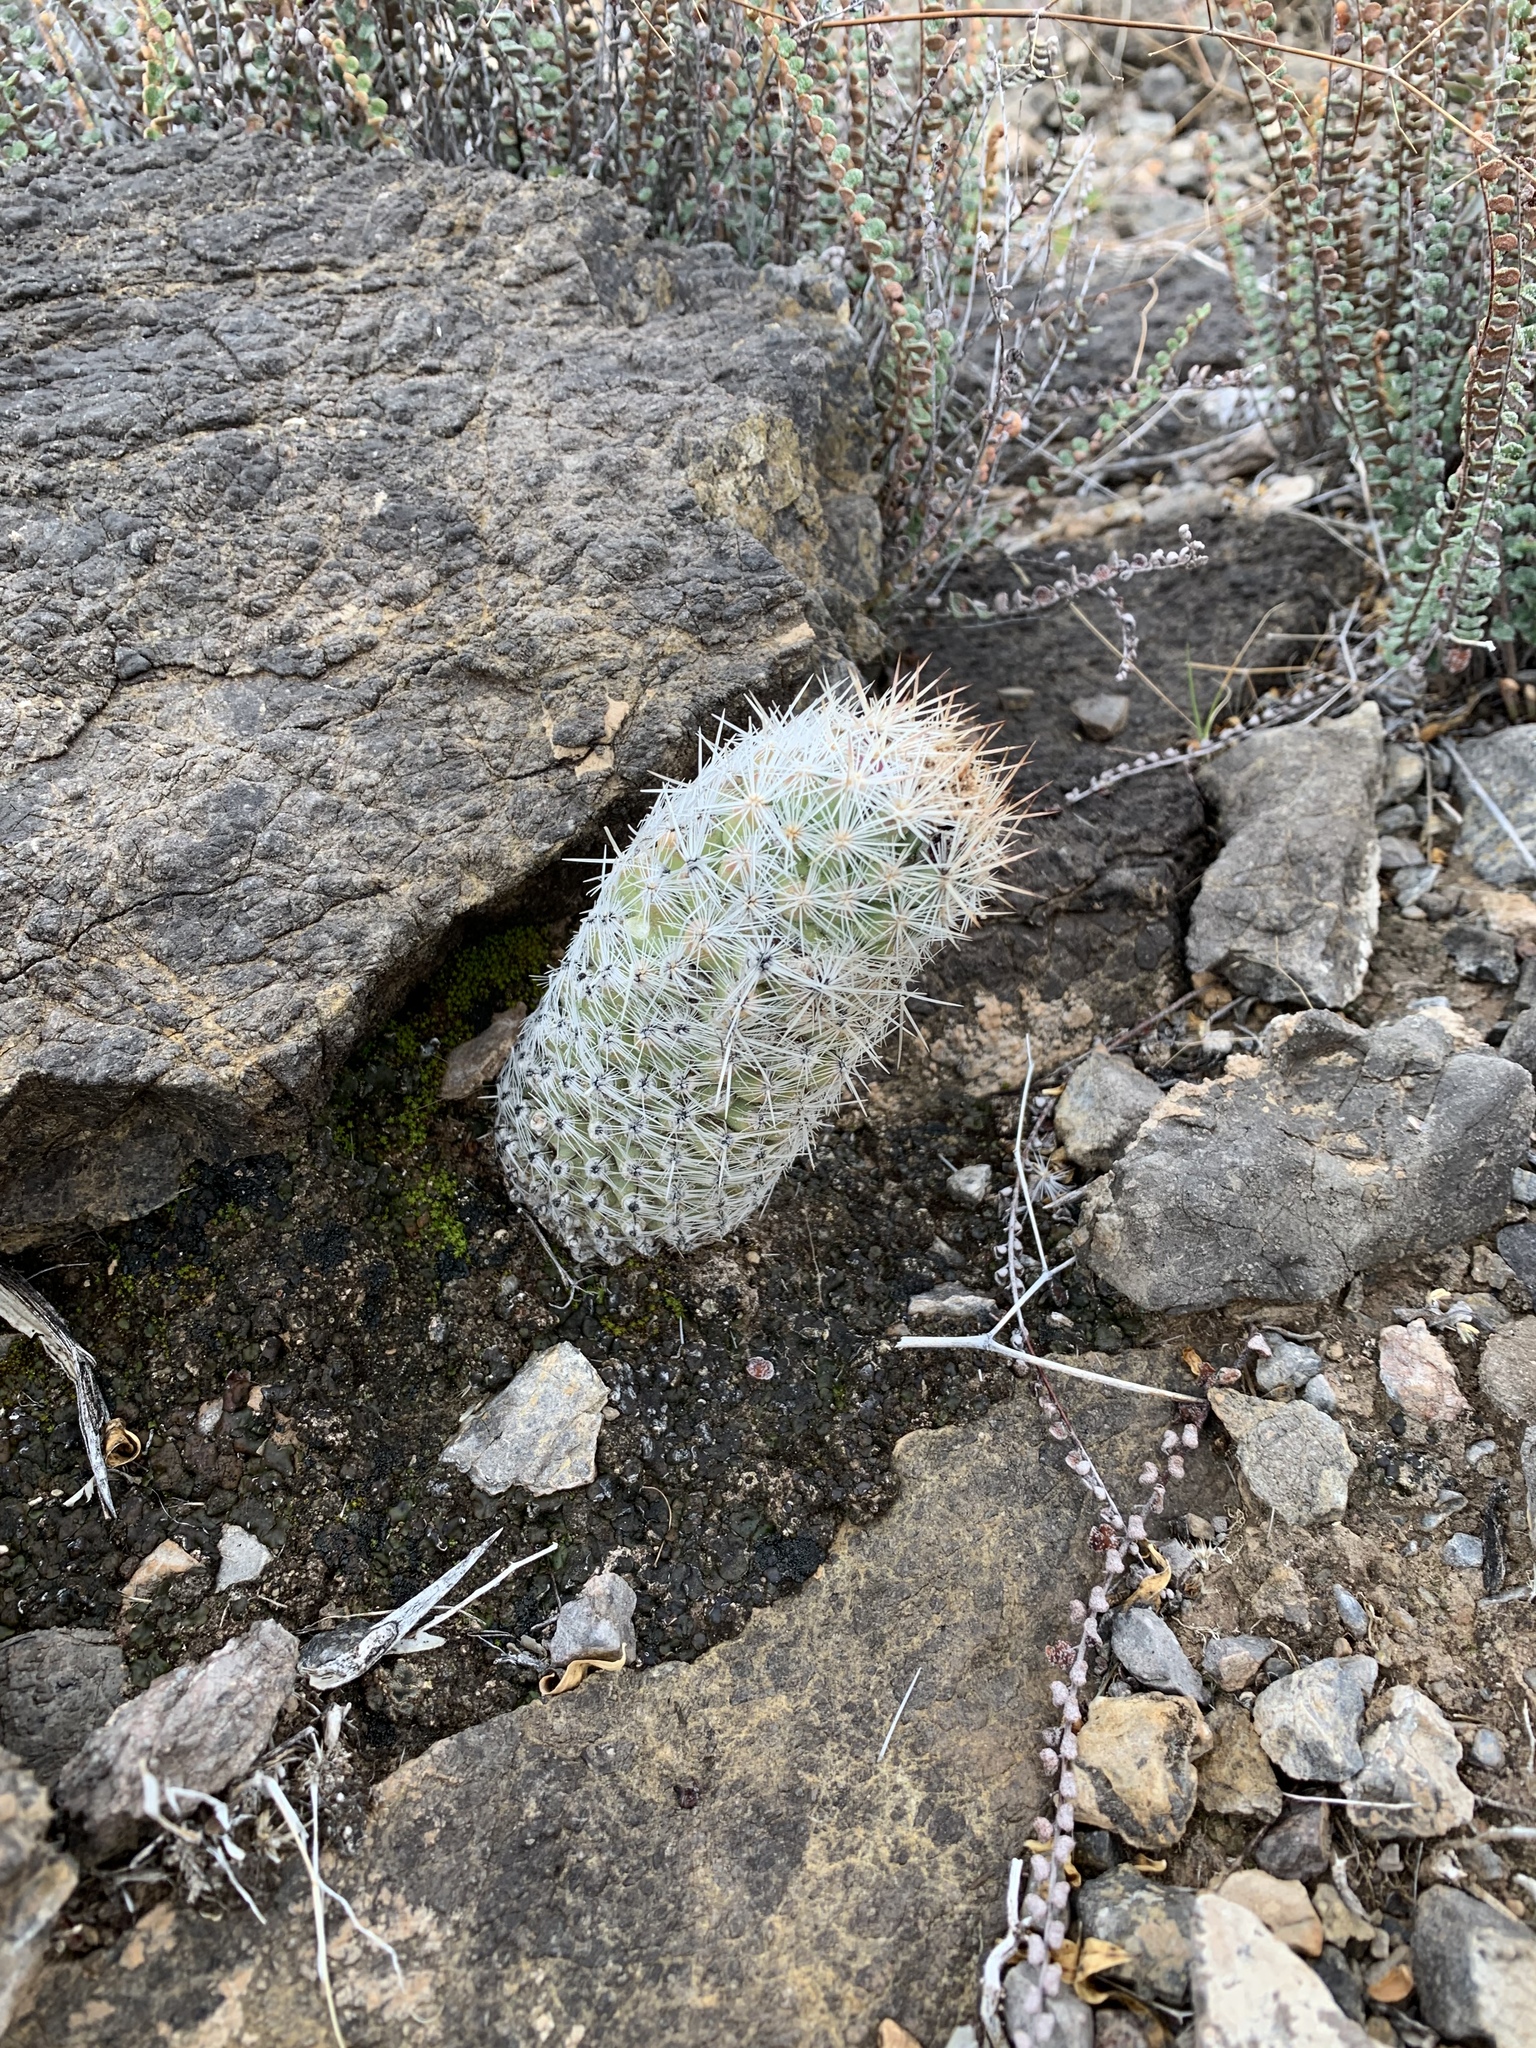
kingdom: Plantae
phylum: Tracheophyta
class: Magnoliopsida
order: Caryophyllales
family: Cactaceae
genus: Pelecyphora
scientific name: Pelecyphora tuberculosa
